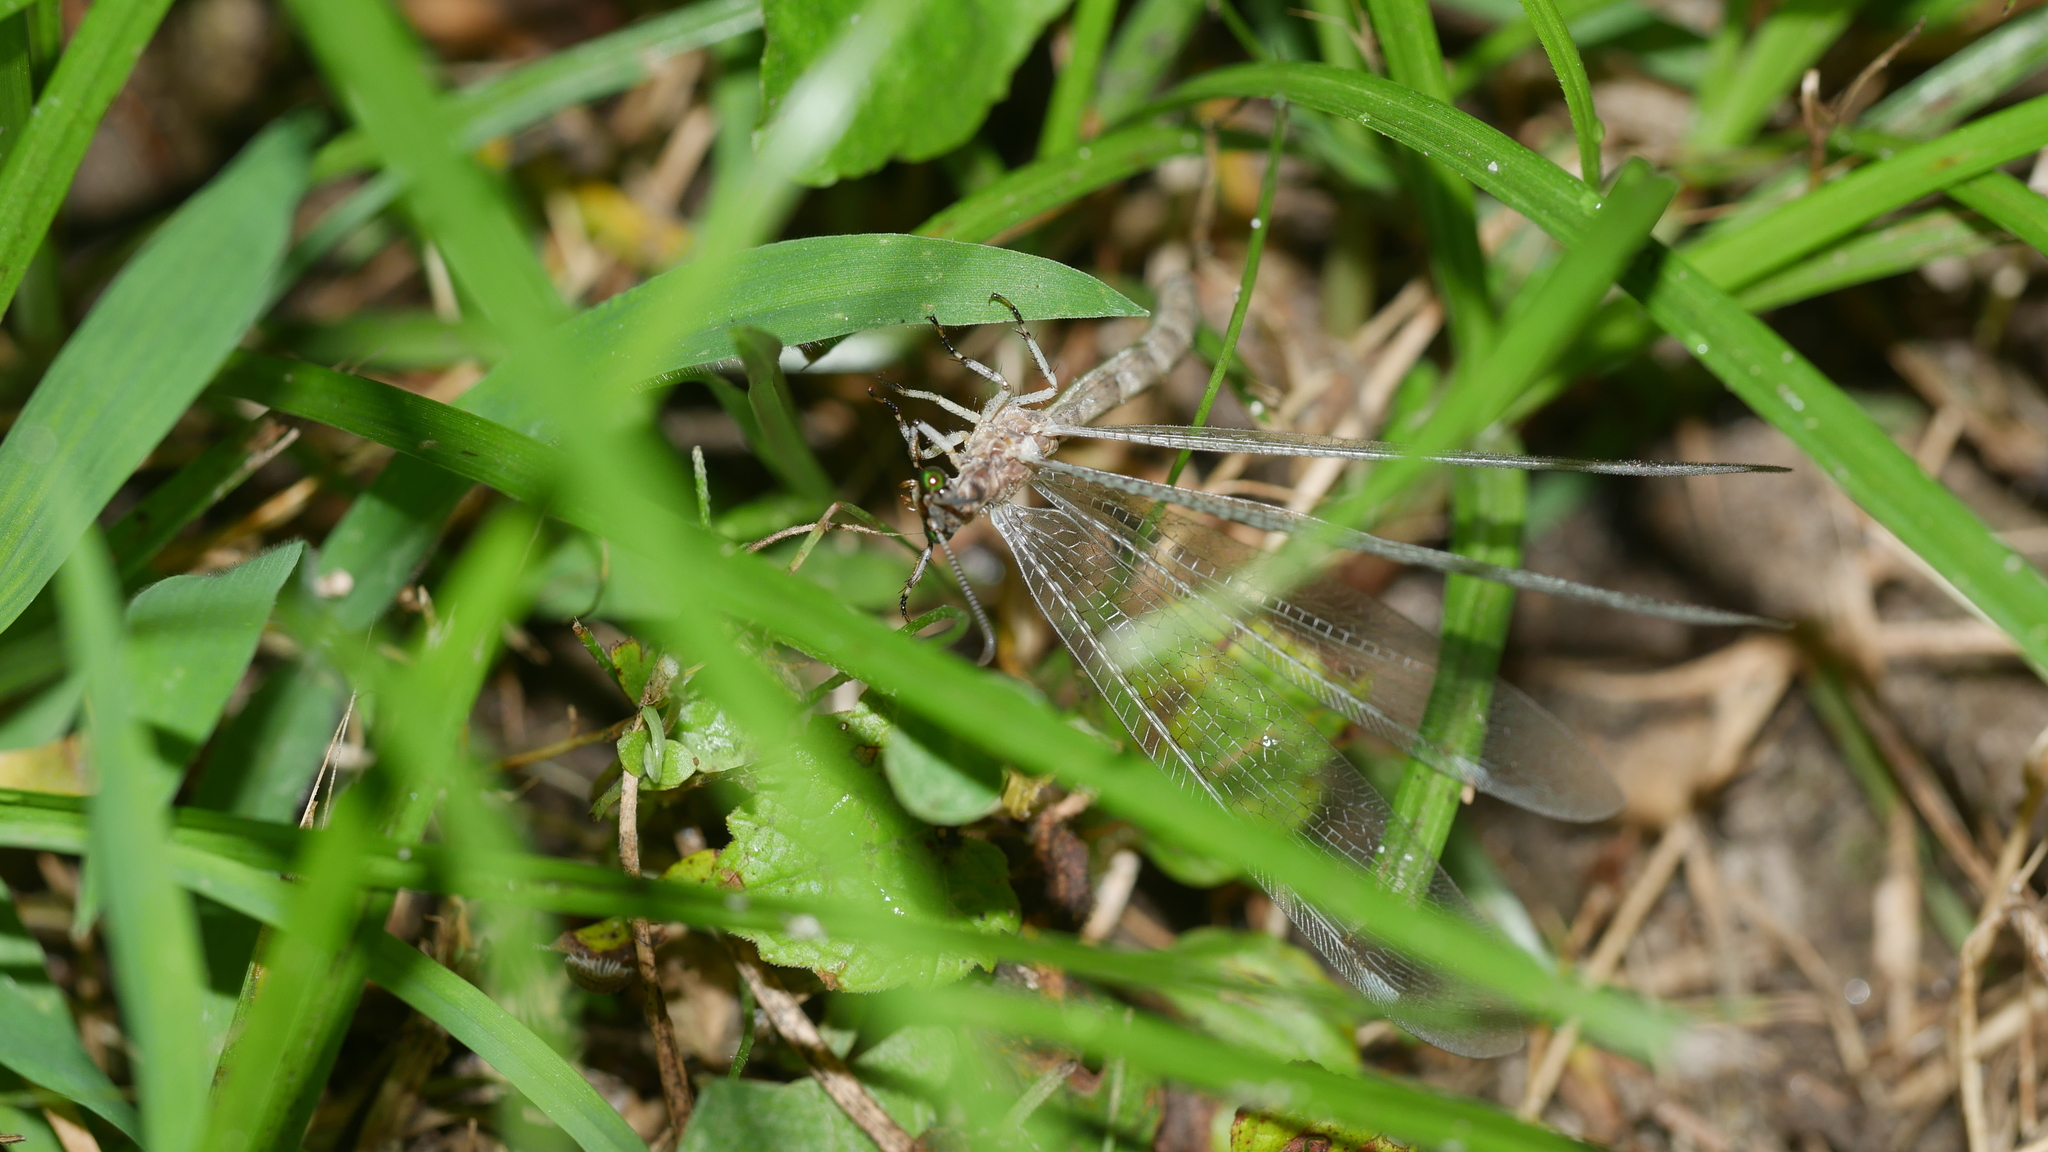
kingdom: Animalia
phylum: Arthropoda
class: Insecta
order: Neuroptera
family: Myrmeleontidae
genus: Myrmeleon
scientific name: Myrmeleon
